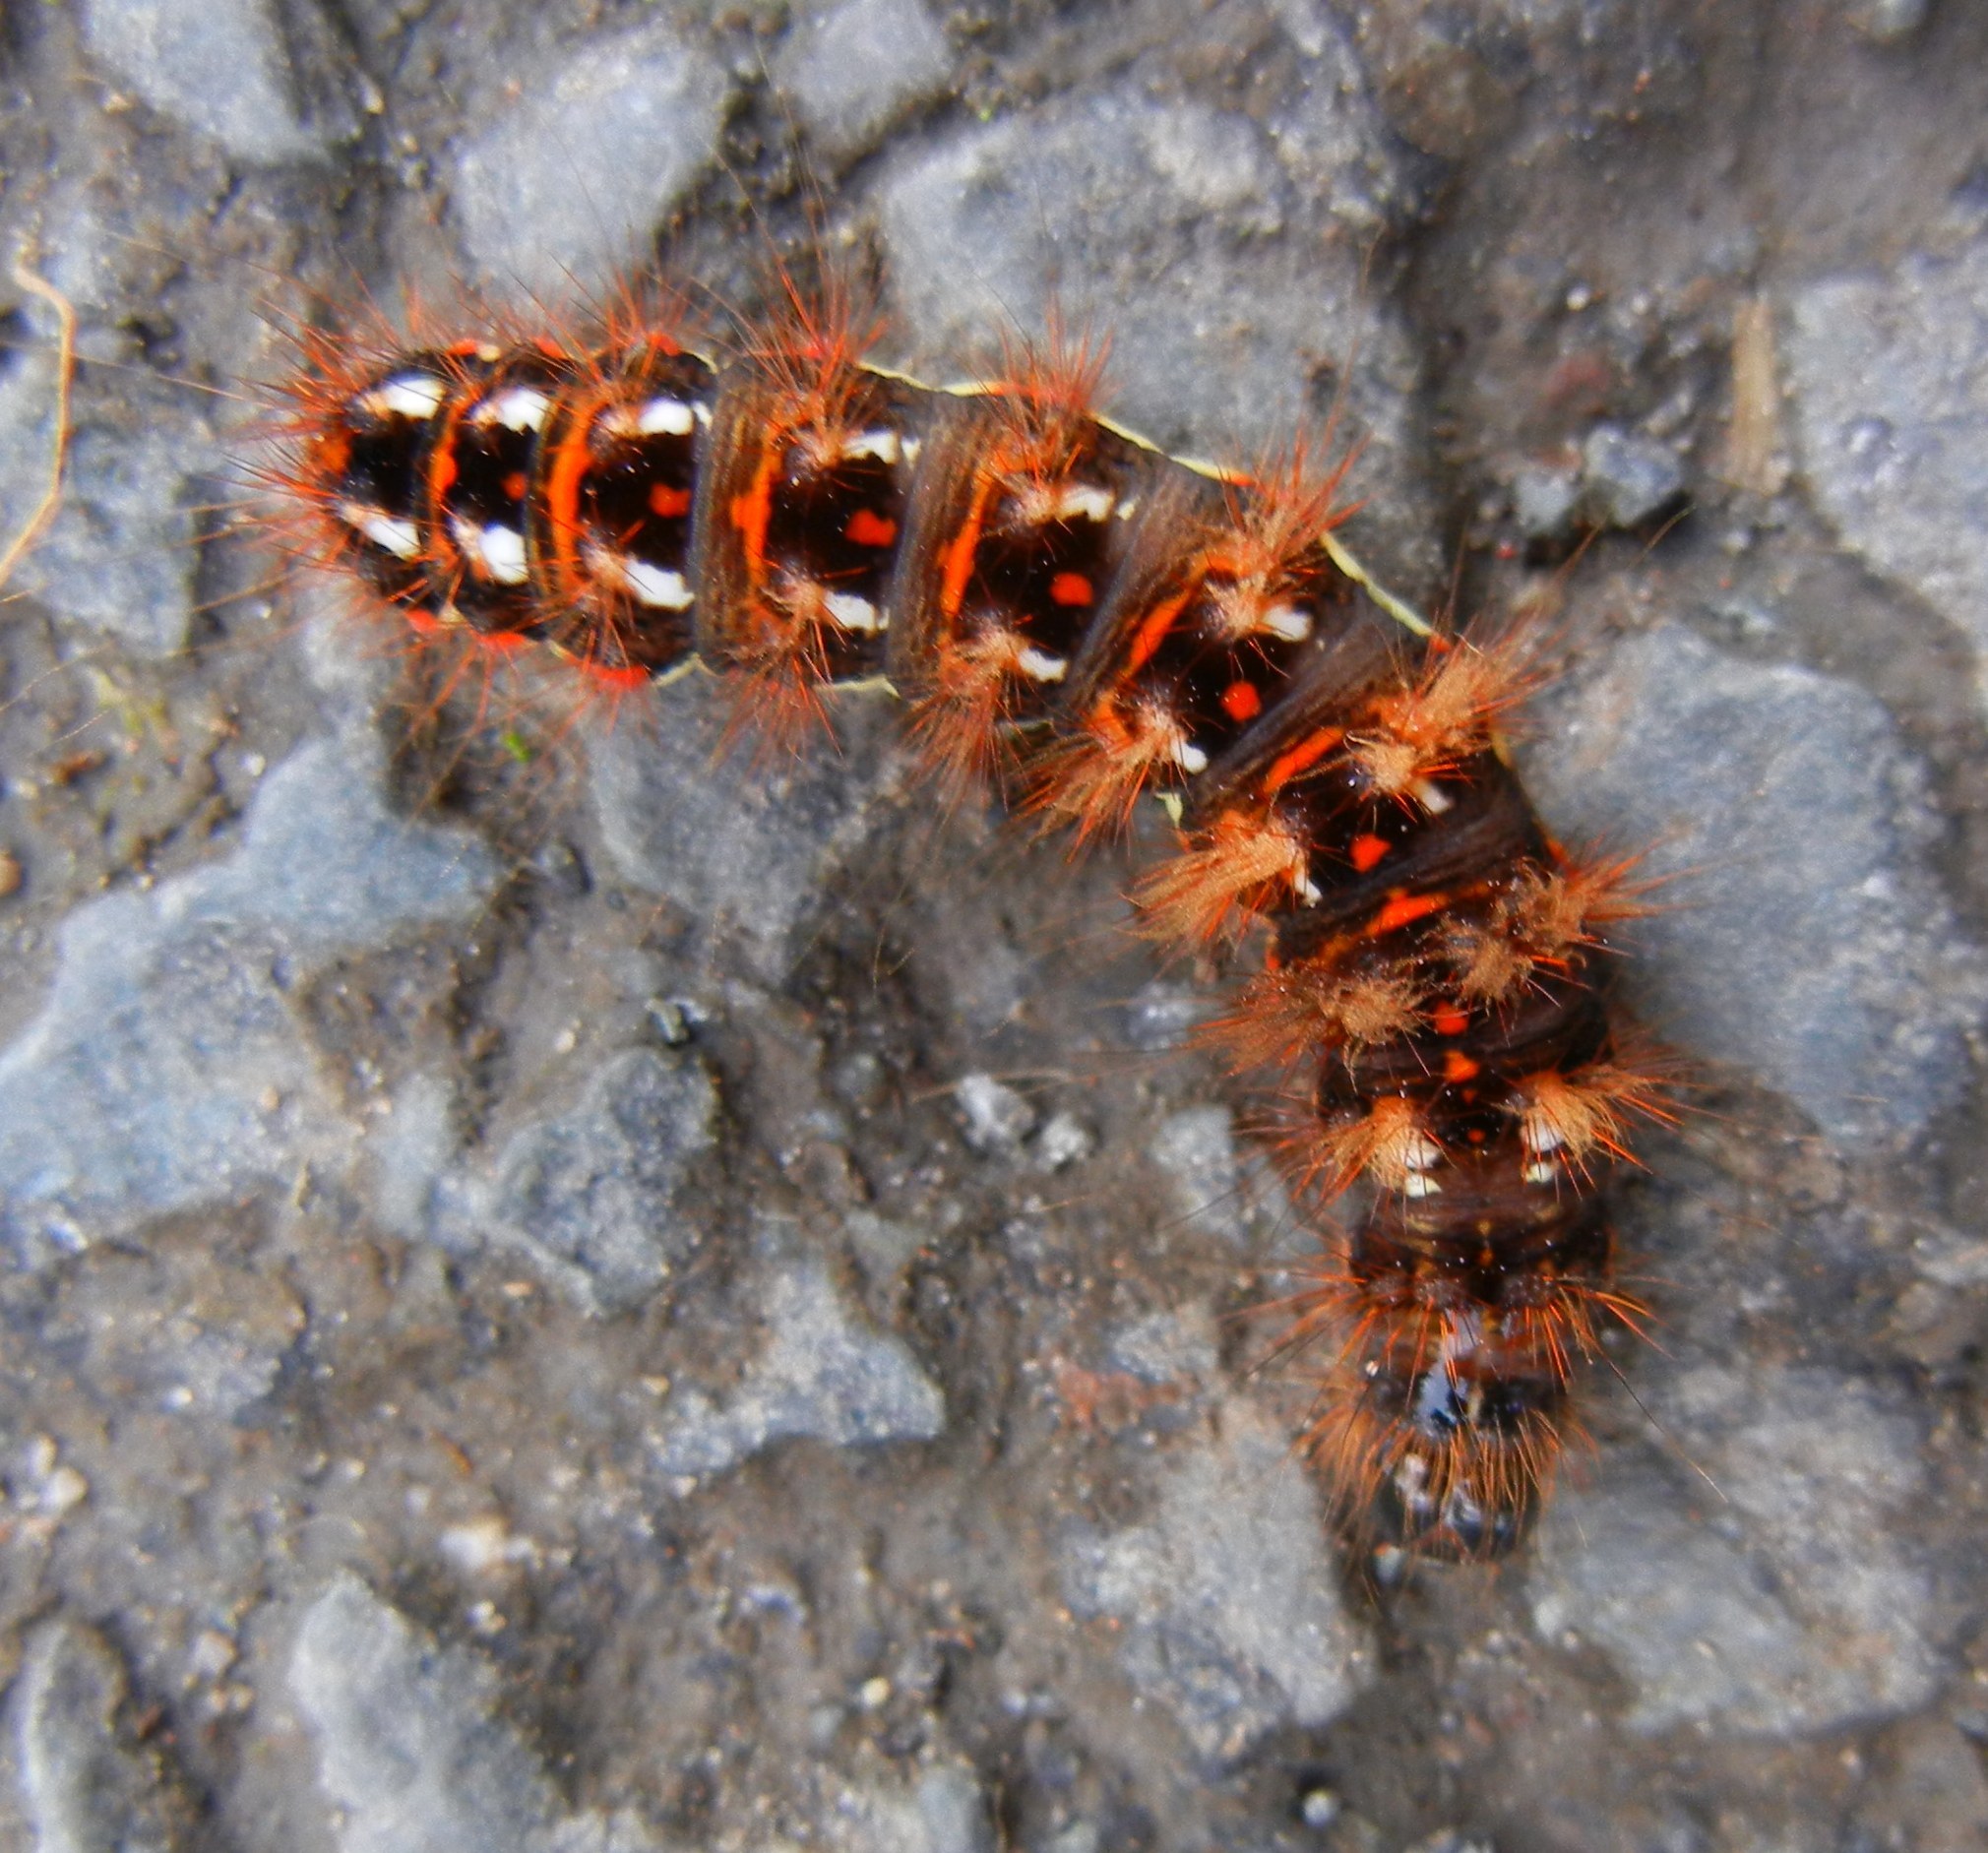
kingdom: Animalia
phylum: Arthropoda
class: Insecta
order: Lepidoptera
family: Noctuidae
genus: Acronicta
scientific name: Acronicta rumicis
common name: Knot grass
